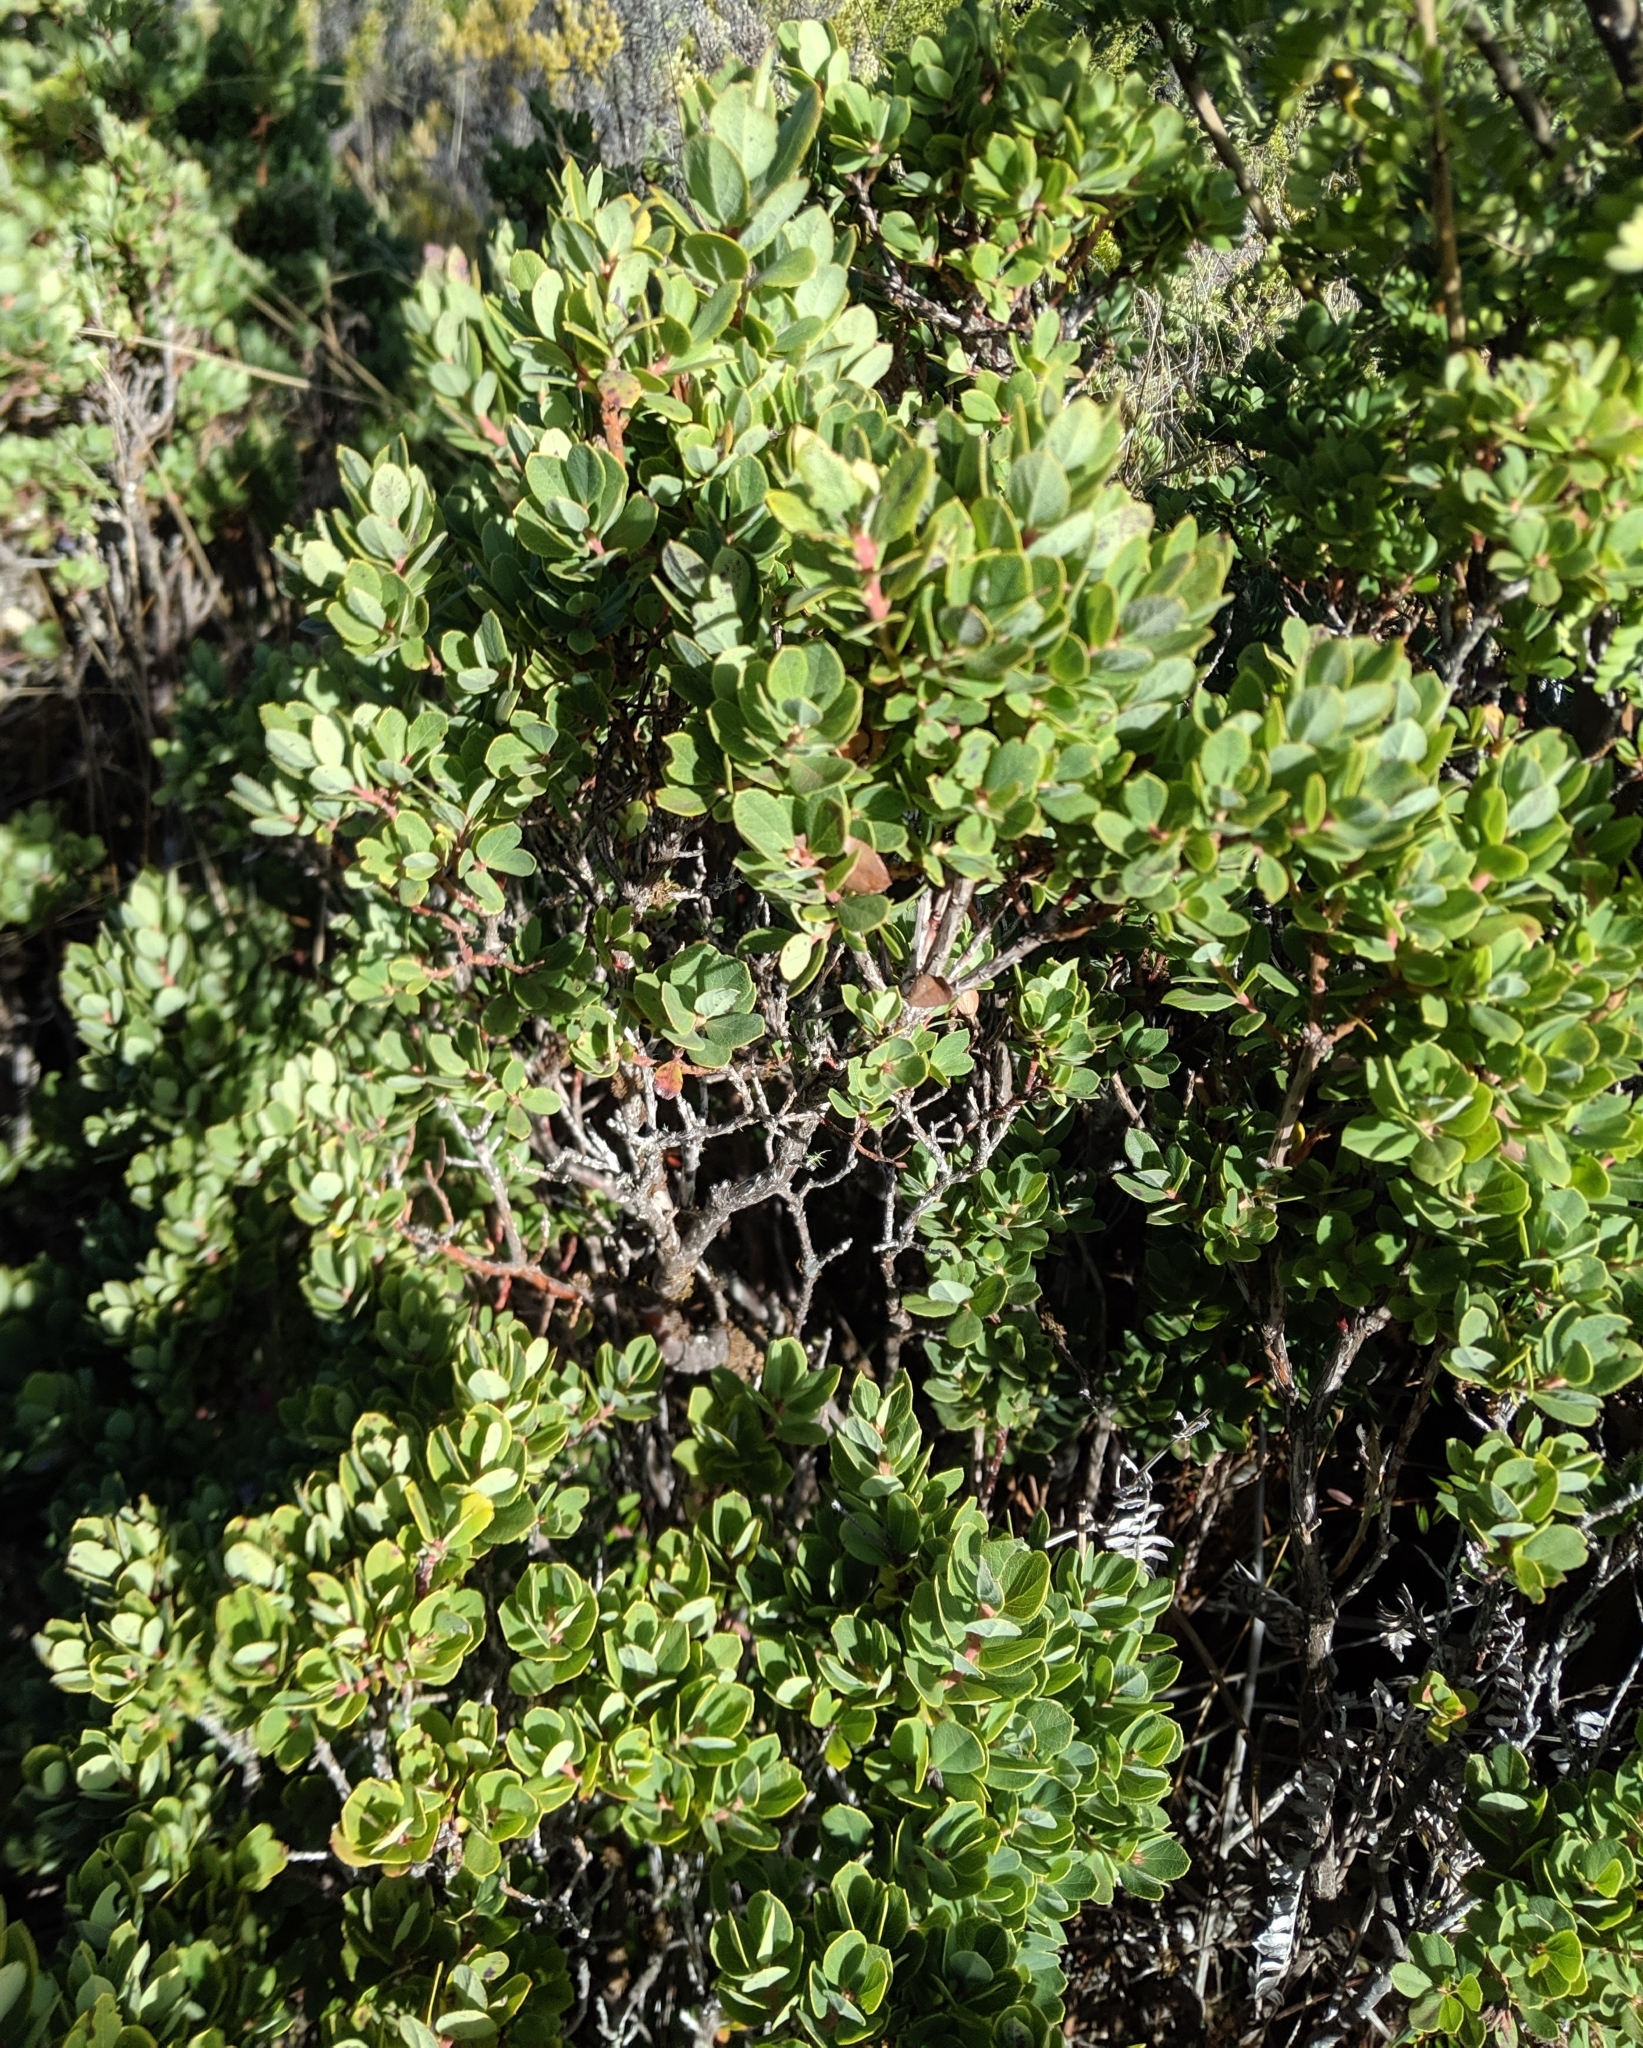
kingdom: Plantae
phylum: Tracheophyta
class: Magnoliopsida
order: Ericales
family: Ericaceae
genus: Vaccinium
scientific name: Vaccinium reticulatum
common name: Ohelo
